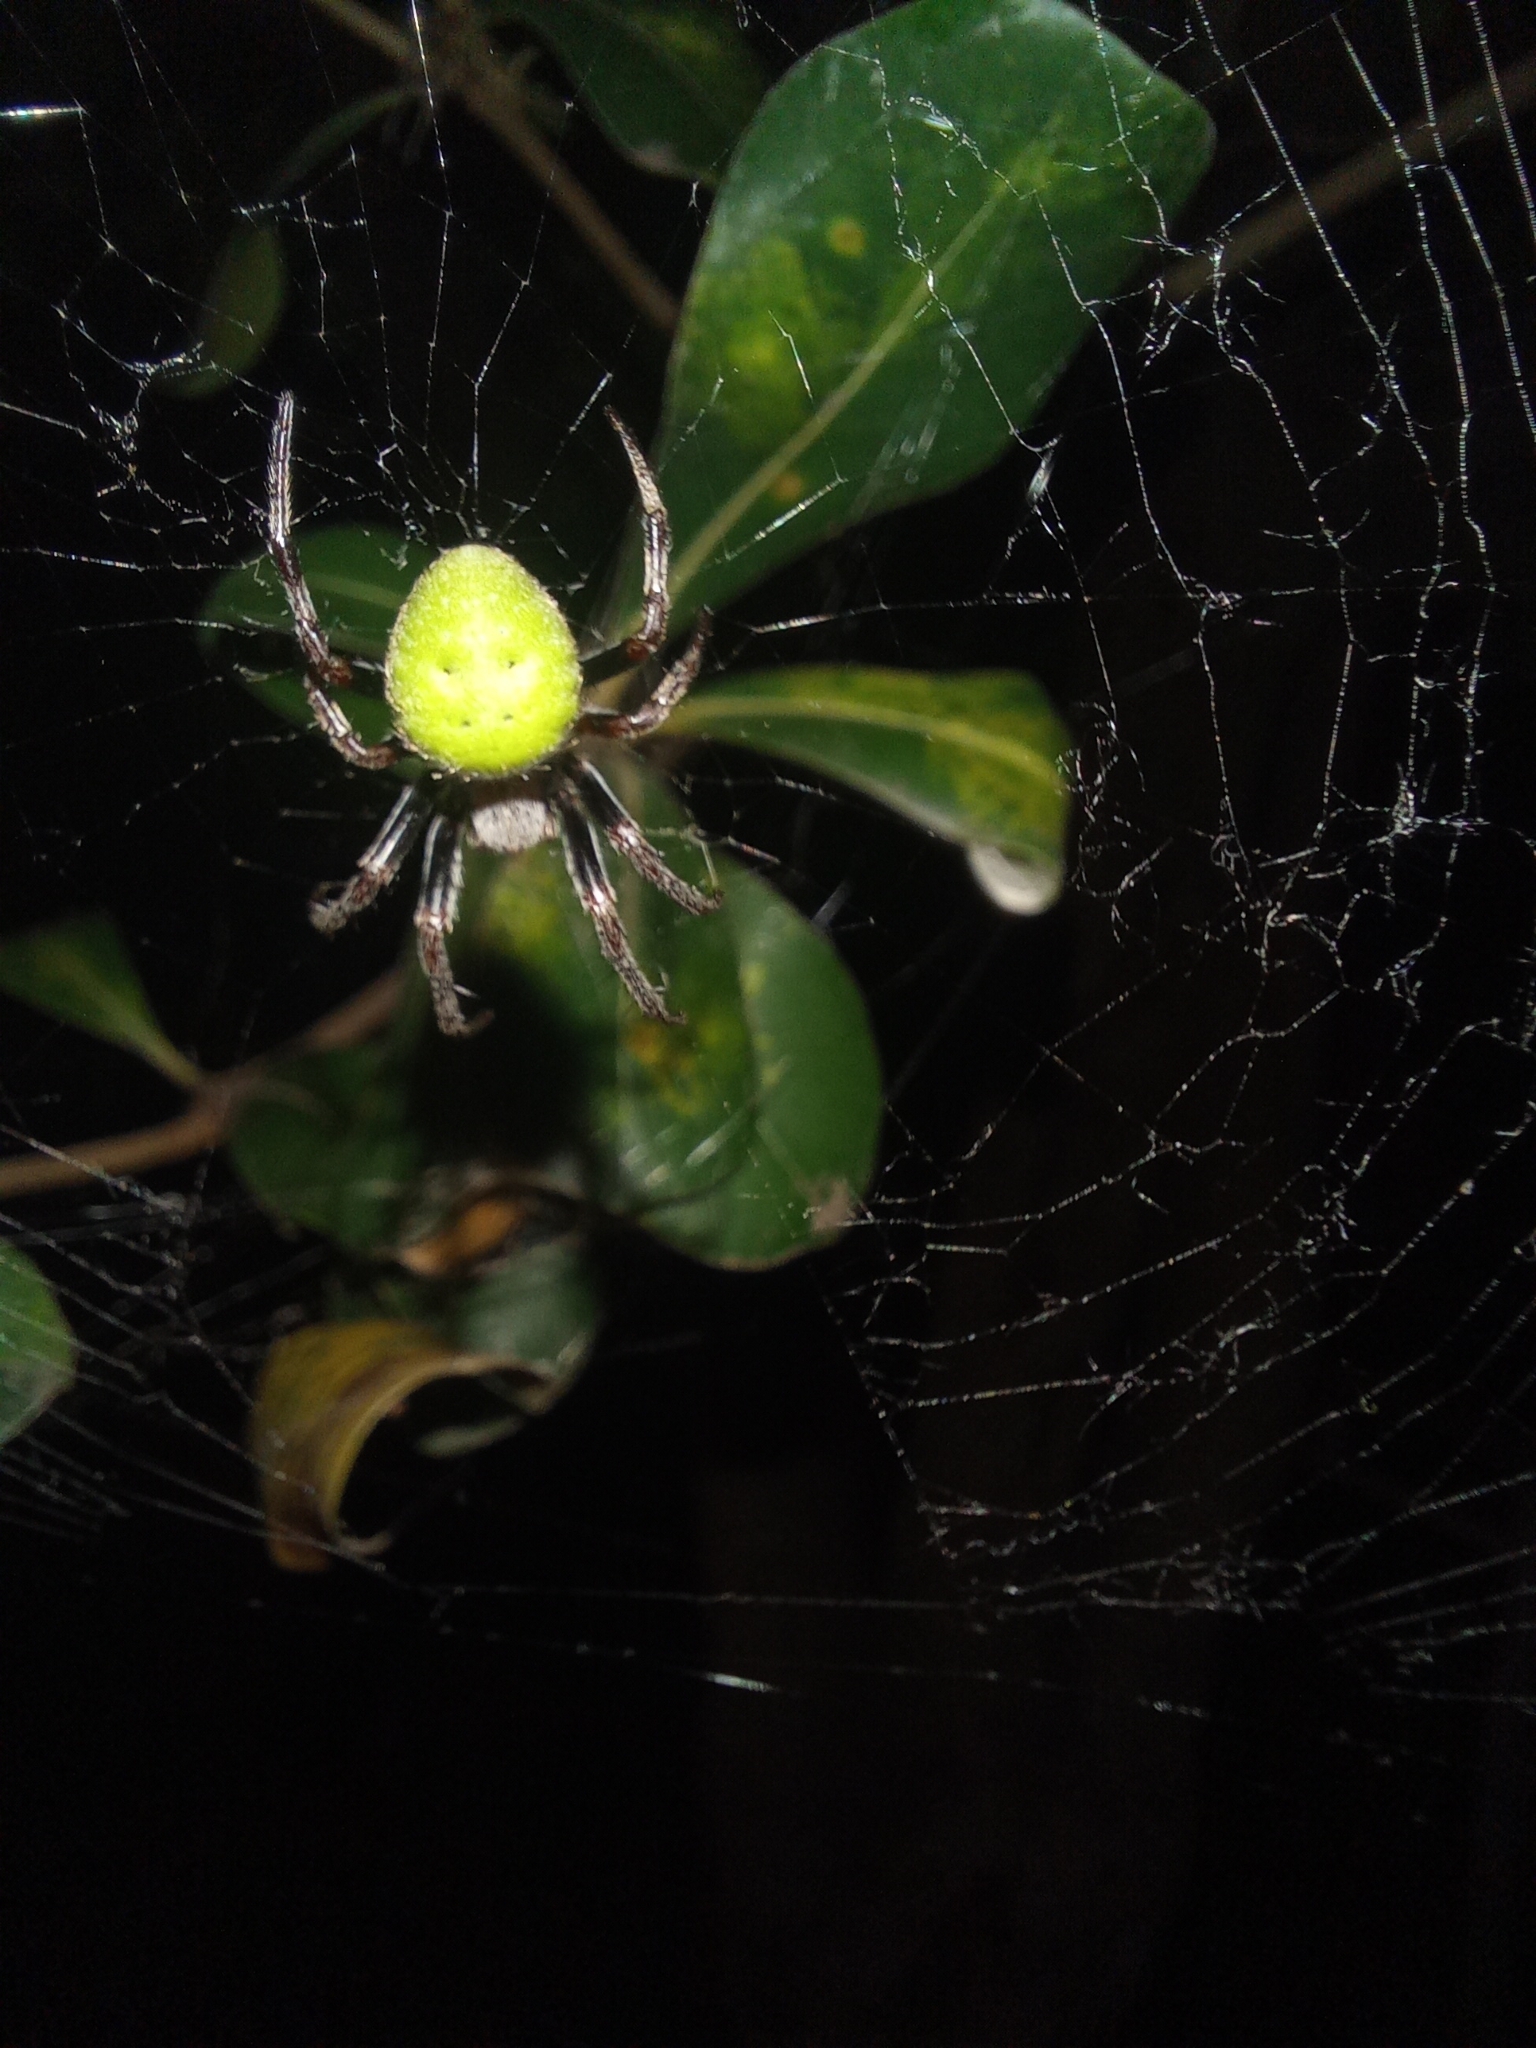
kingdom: Animalia
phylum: Arthropoda
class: Arachnida
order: Araneae
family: Araneidae
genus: Araneus
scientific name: Araneus lathyrinus
